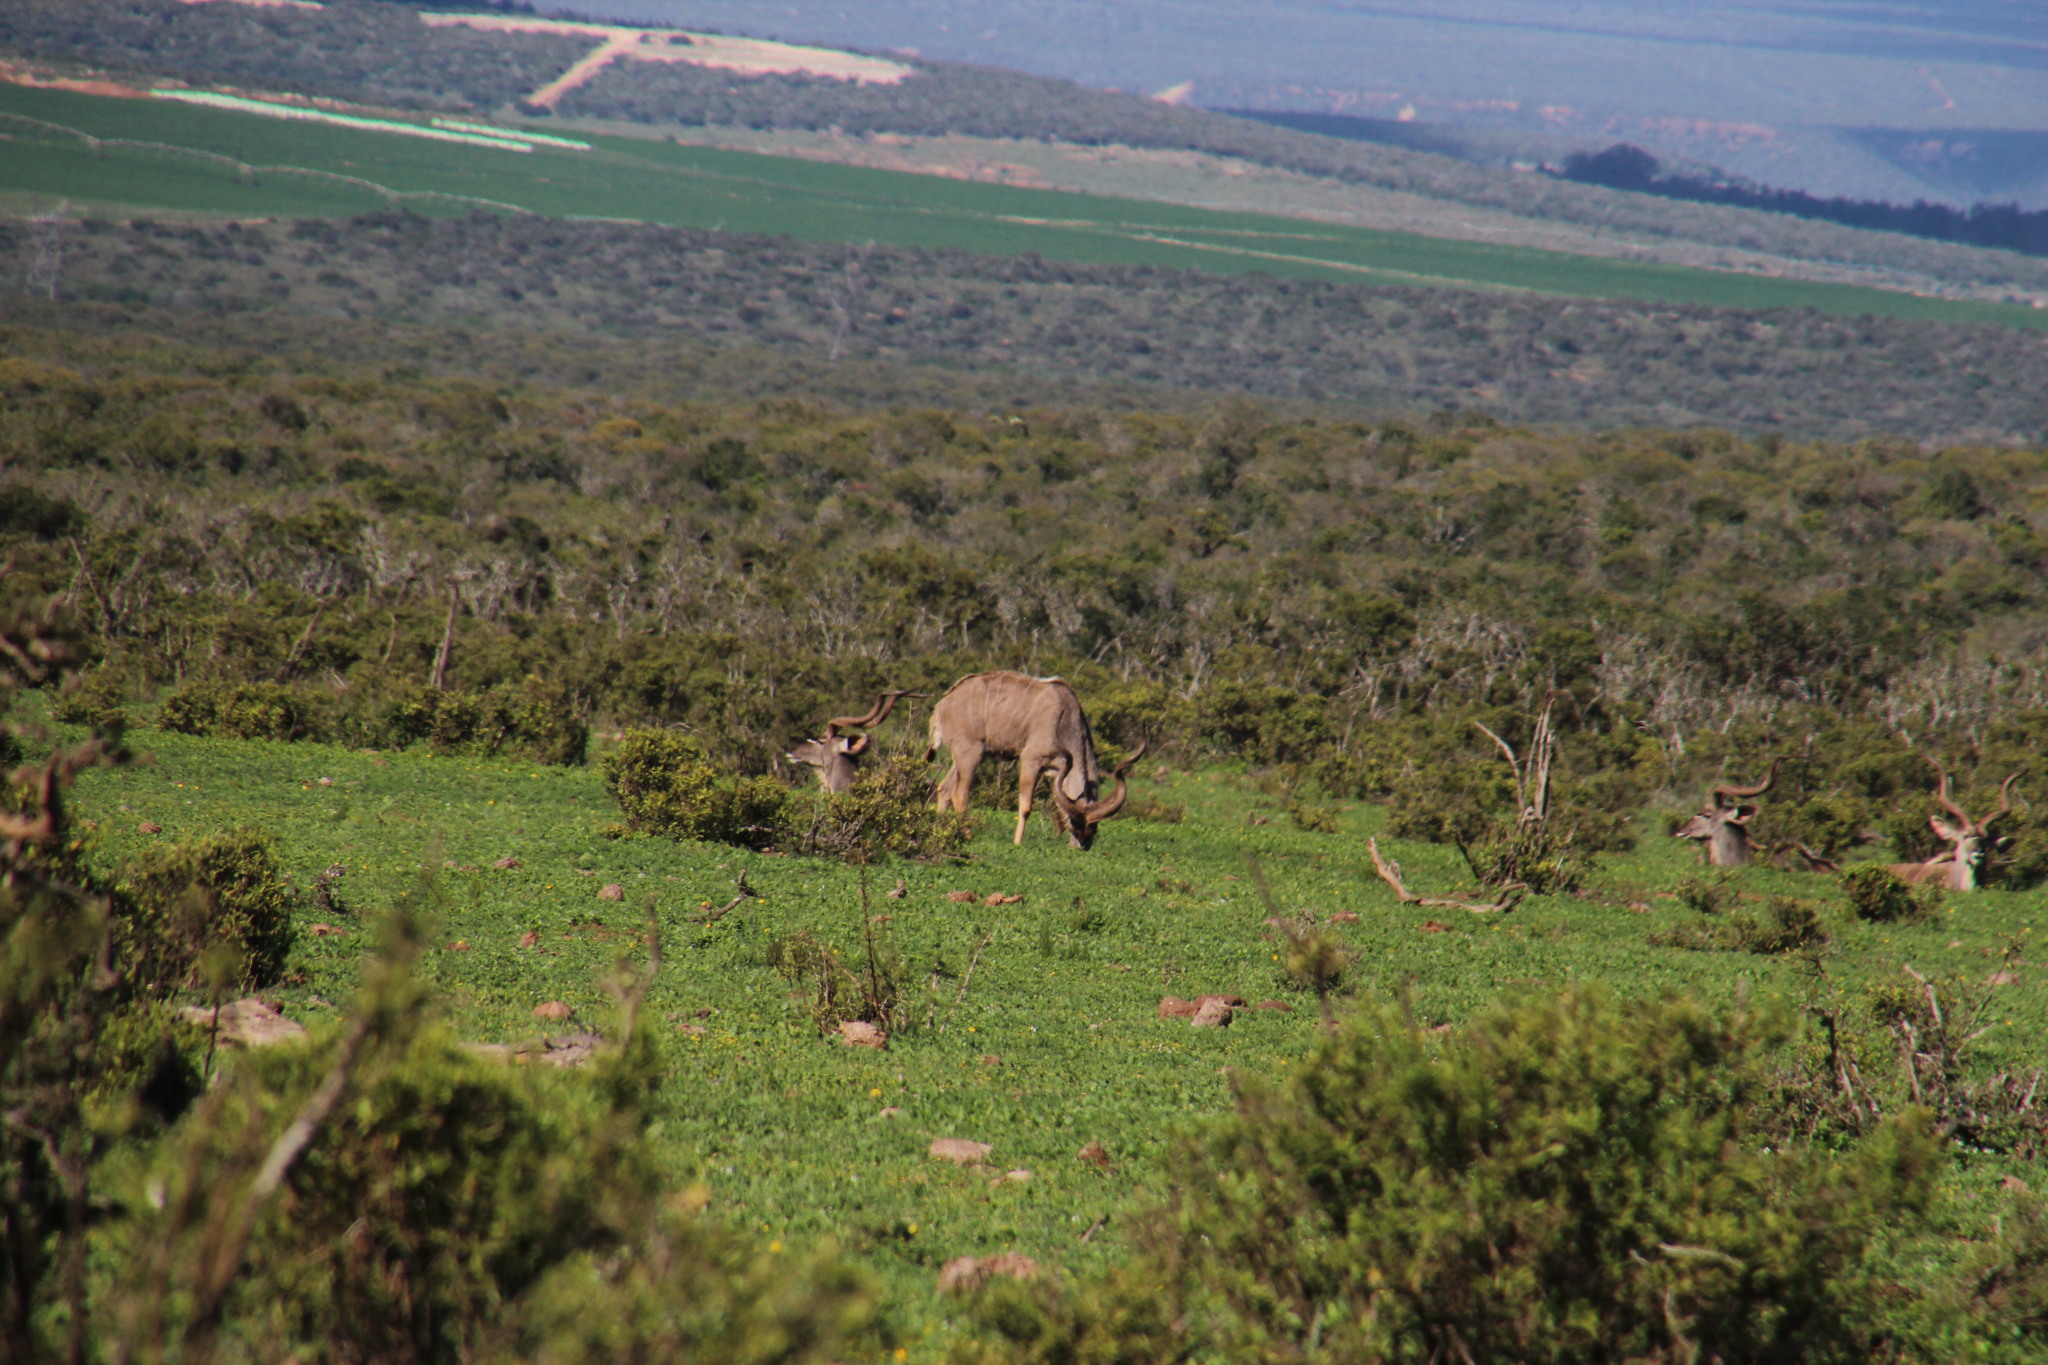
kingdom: Animalia
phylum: Chordata
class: Mammalia
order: Artiodactyla
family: Bovidae
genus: Tragelaphus
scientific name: Tragelaphus strepsiceros
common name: Greater kudu
